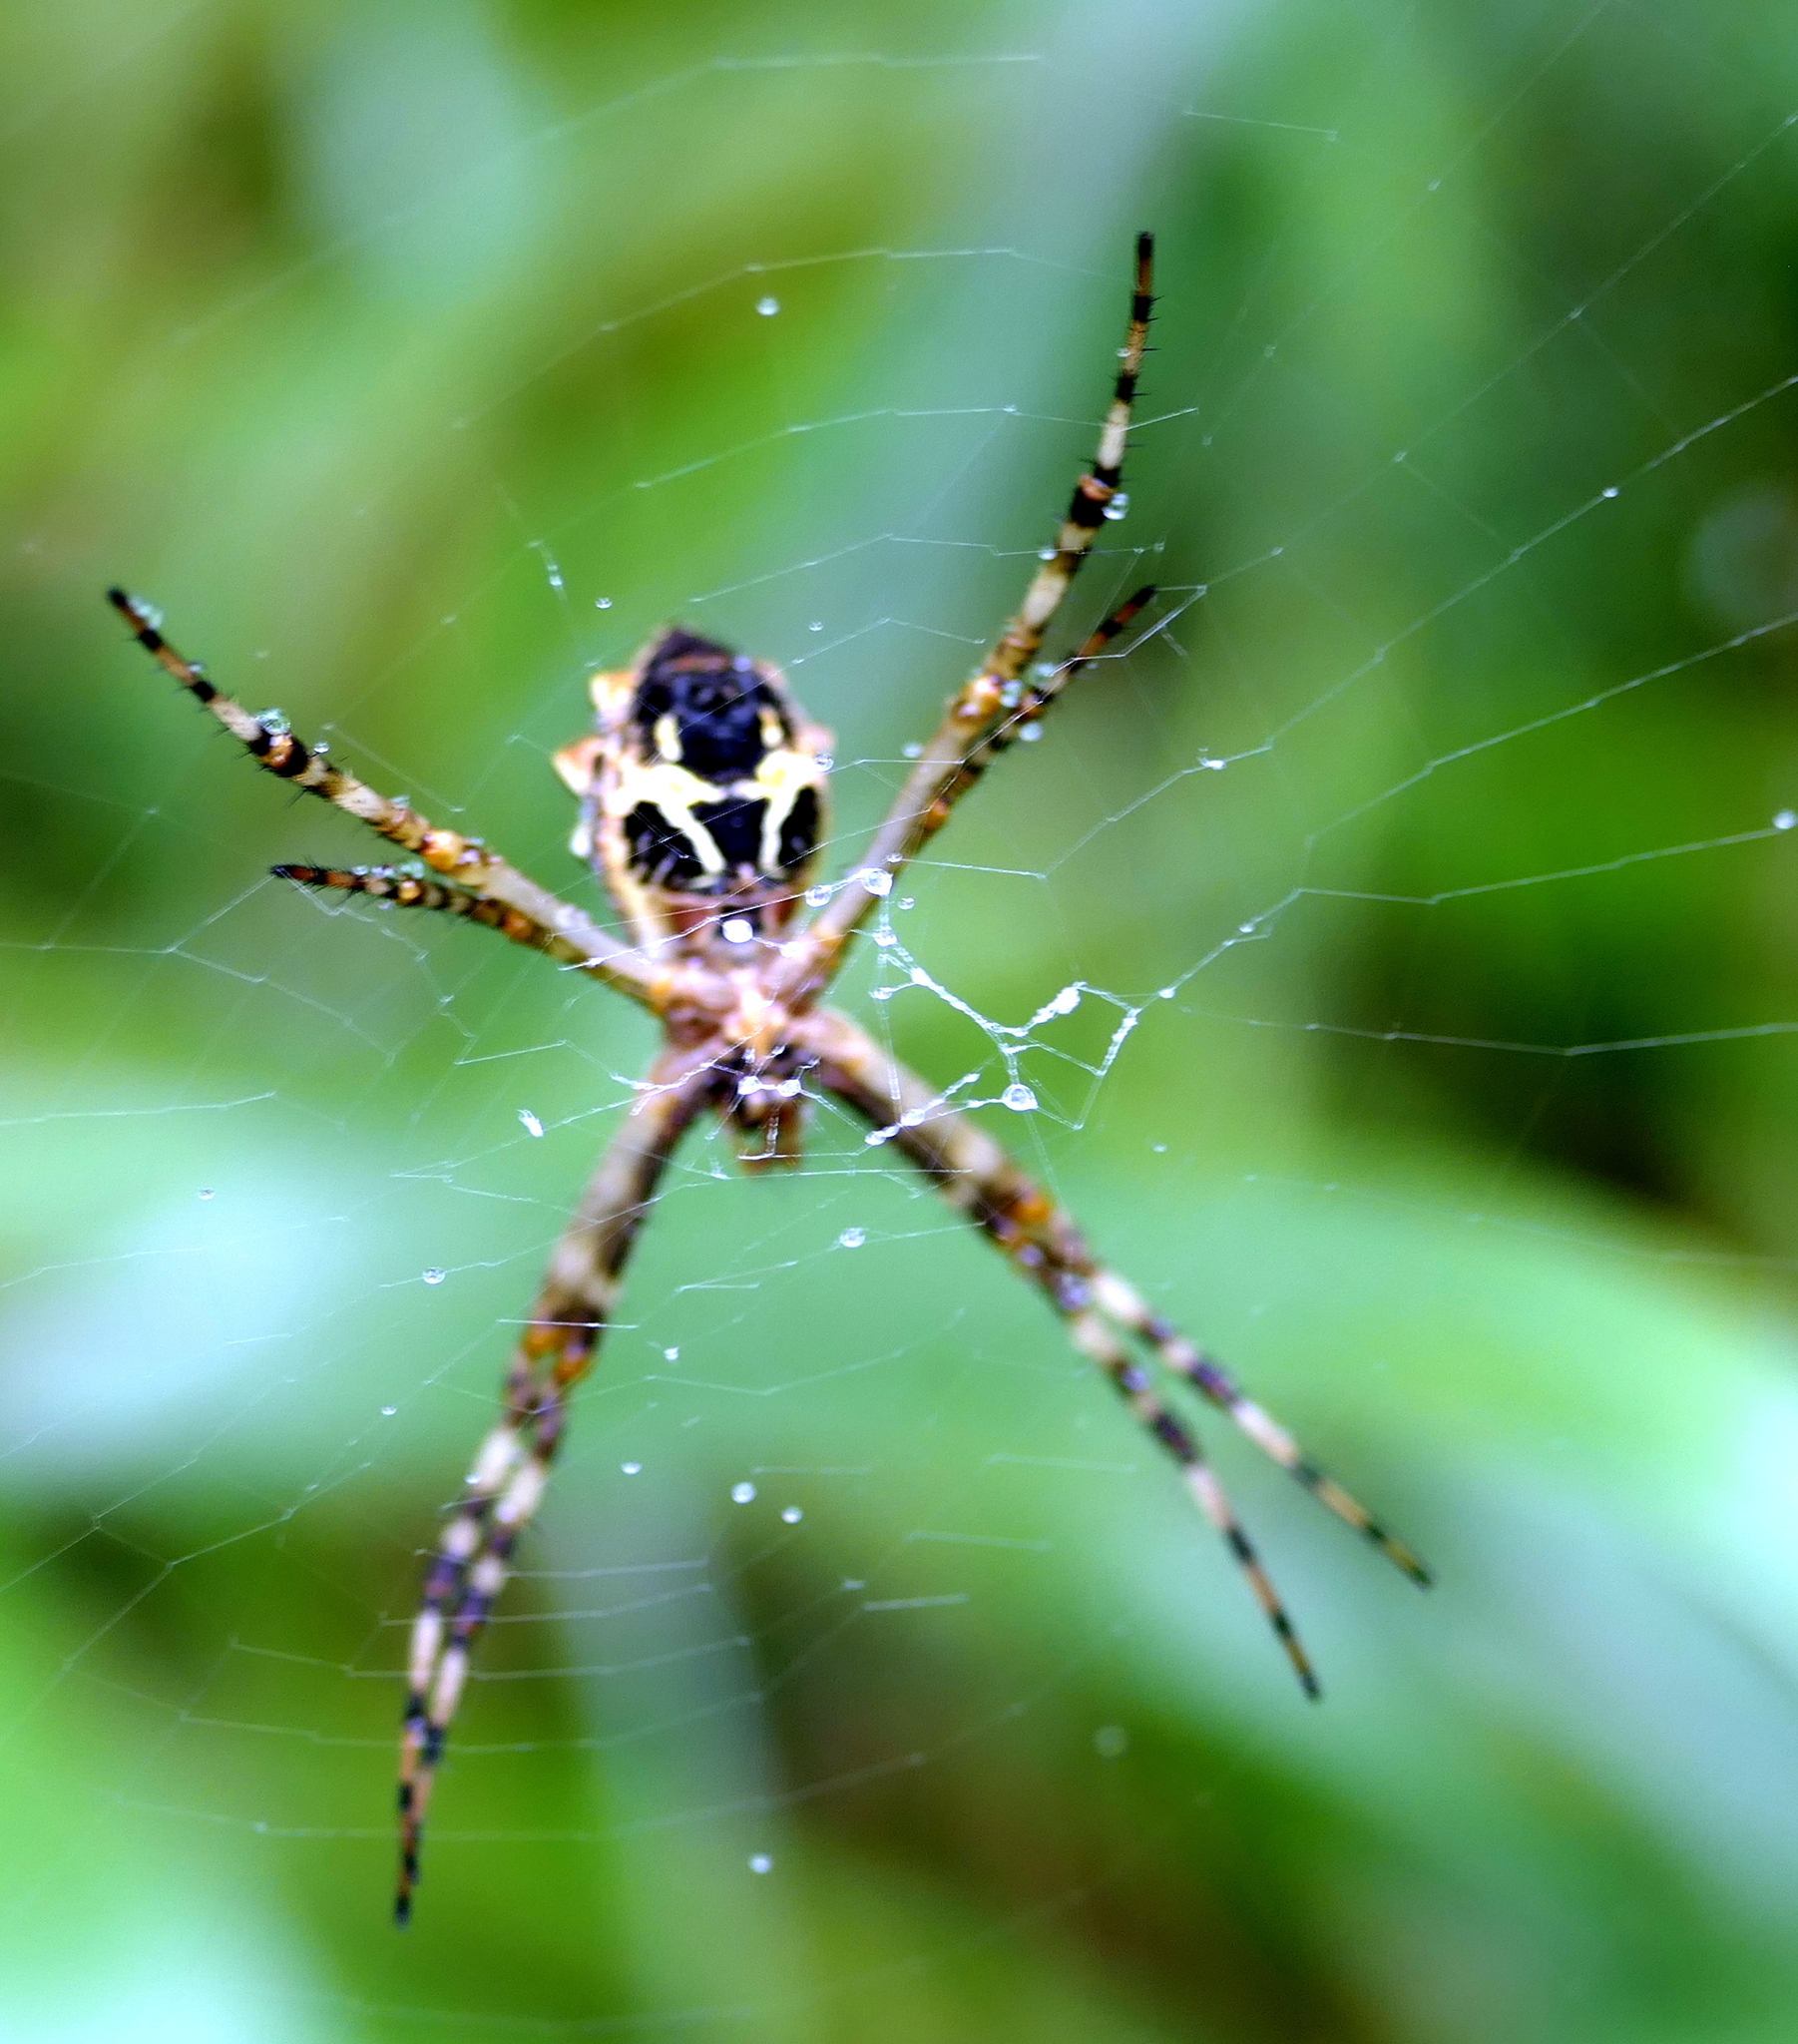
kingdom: Animalia
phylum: Arthropoda
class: Arachnida
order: Araneae
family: Araneidae
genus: Argiope
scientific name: Argiope argentata
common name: Orb weavers
